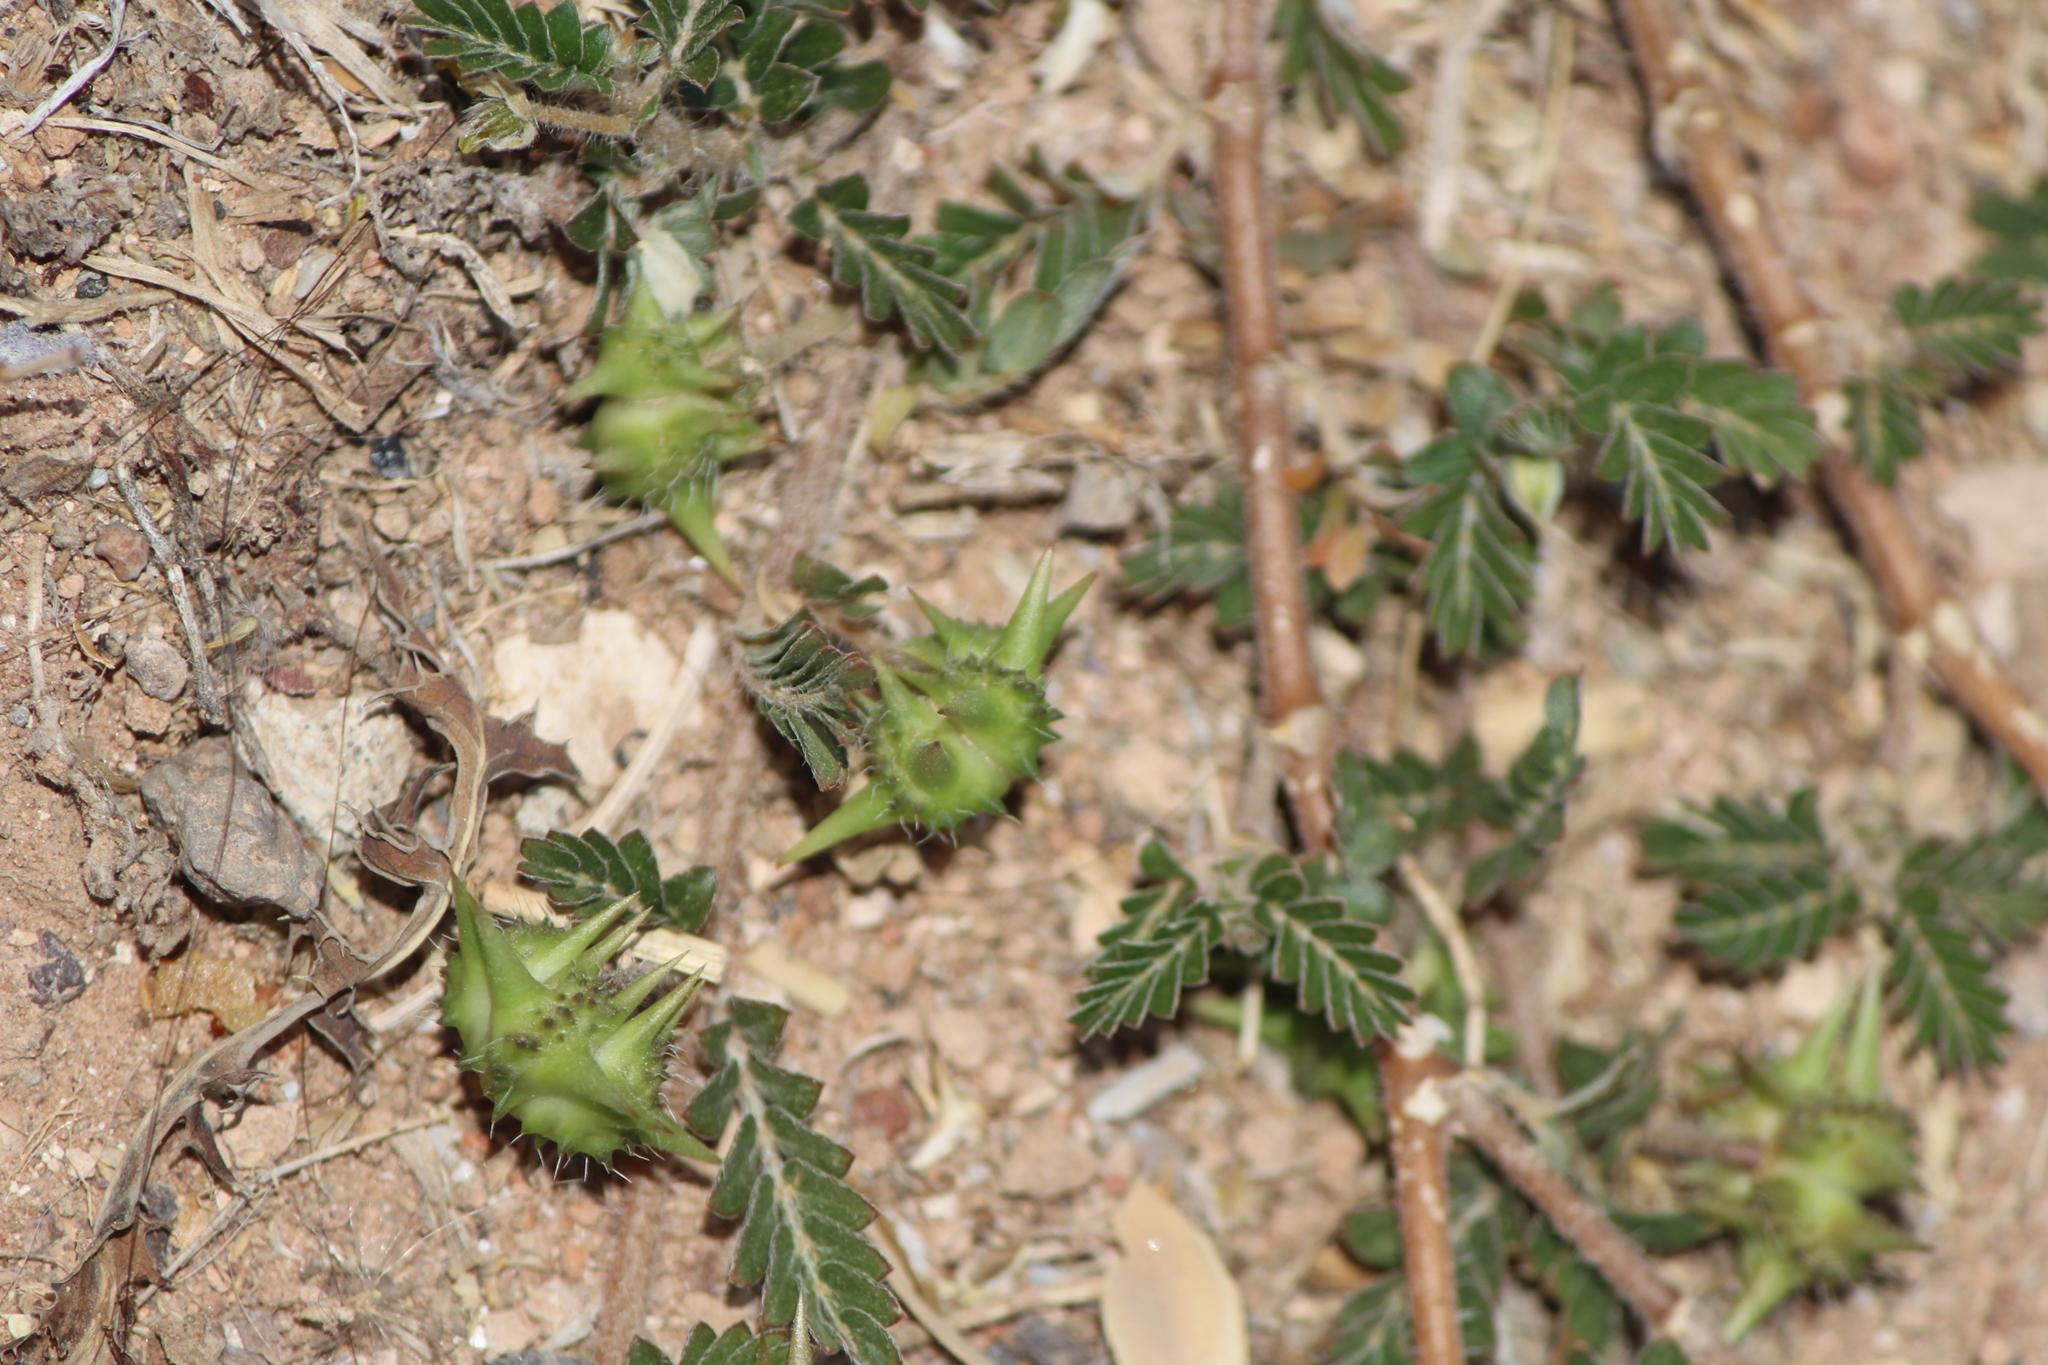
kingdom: Plantae
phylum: Tracheophyta
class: Magnoliopsida
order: Zygophyllales
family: Zygophyllaceae
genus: Tribulus
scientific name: Tribulus terrestris
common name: Puncturevine
